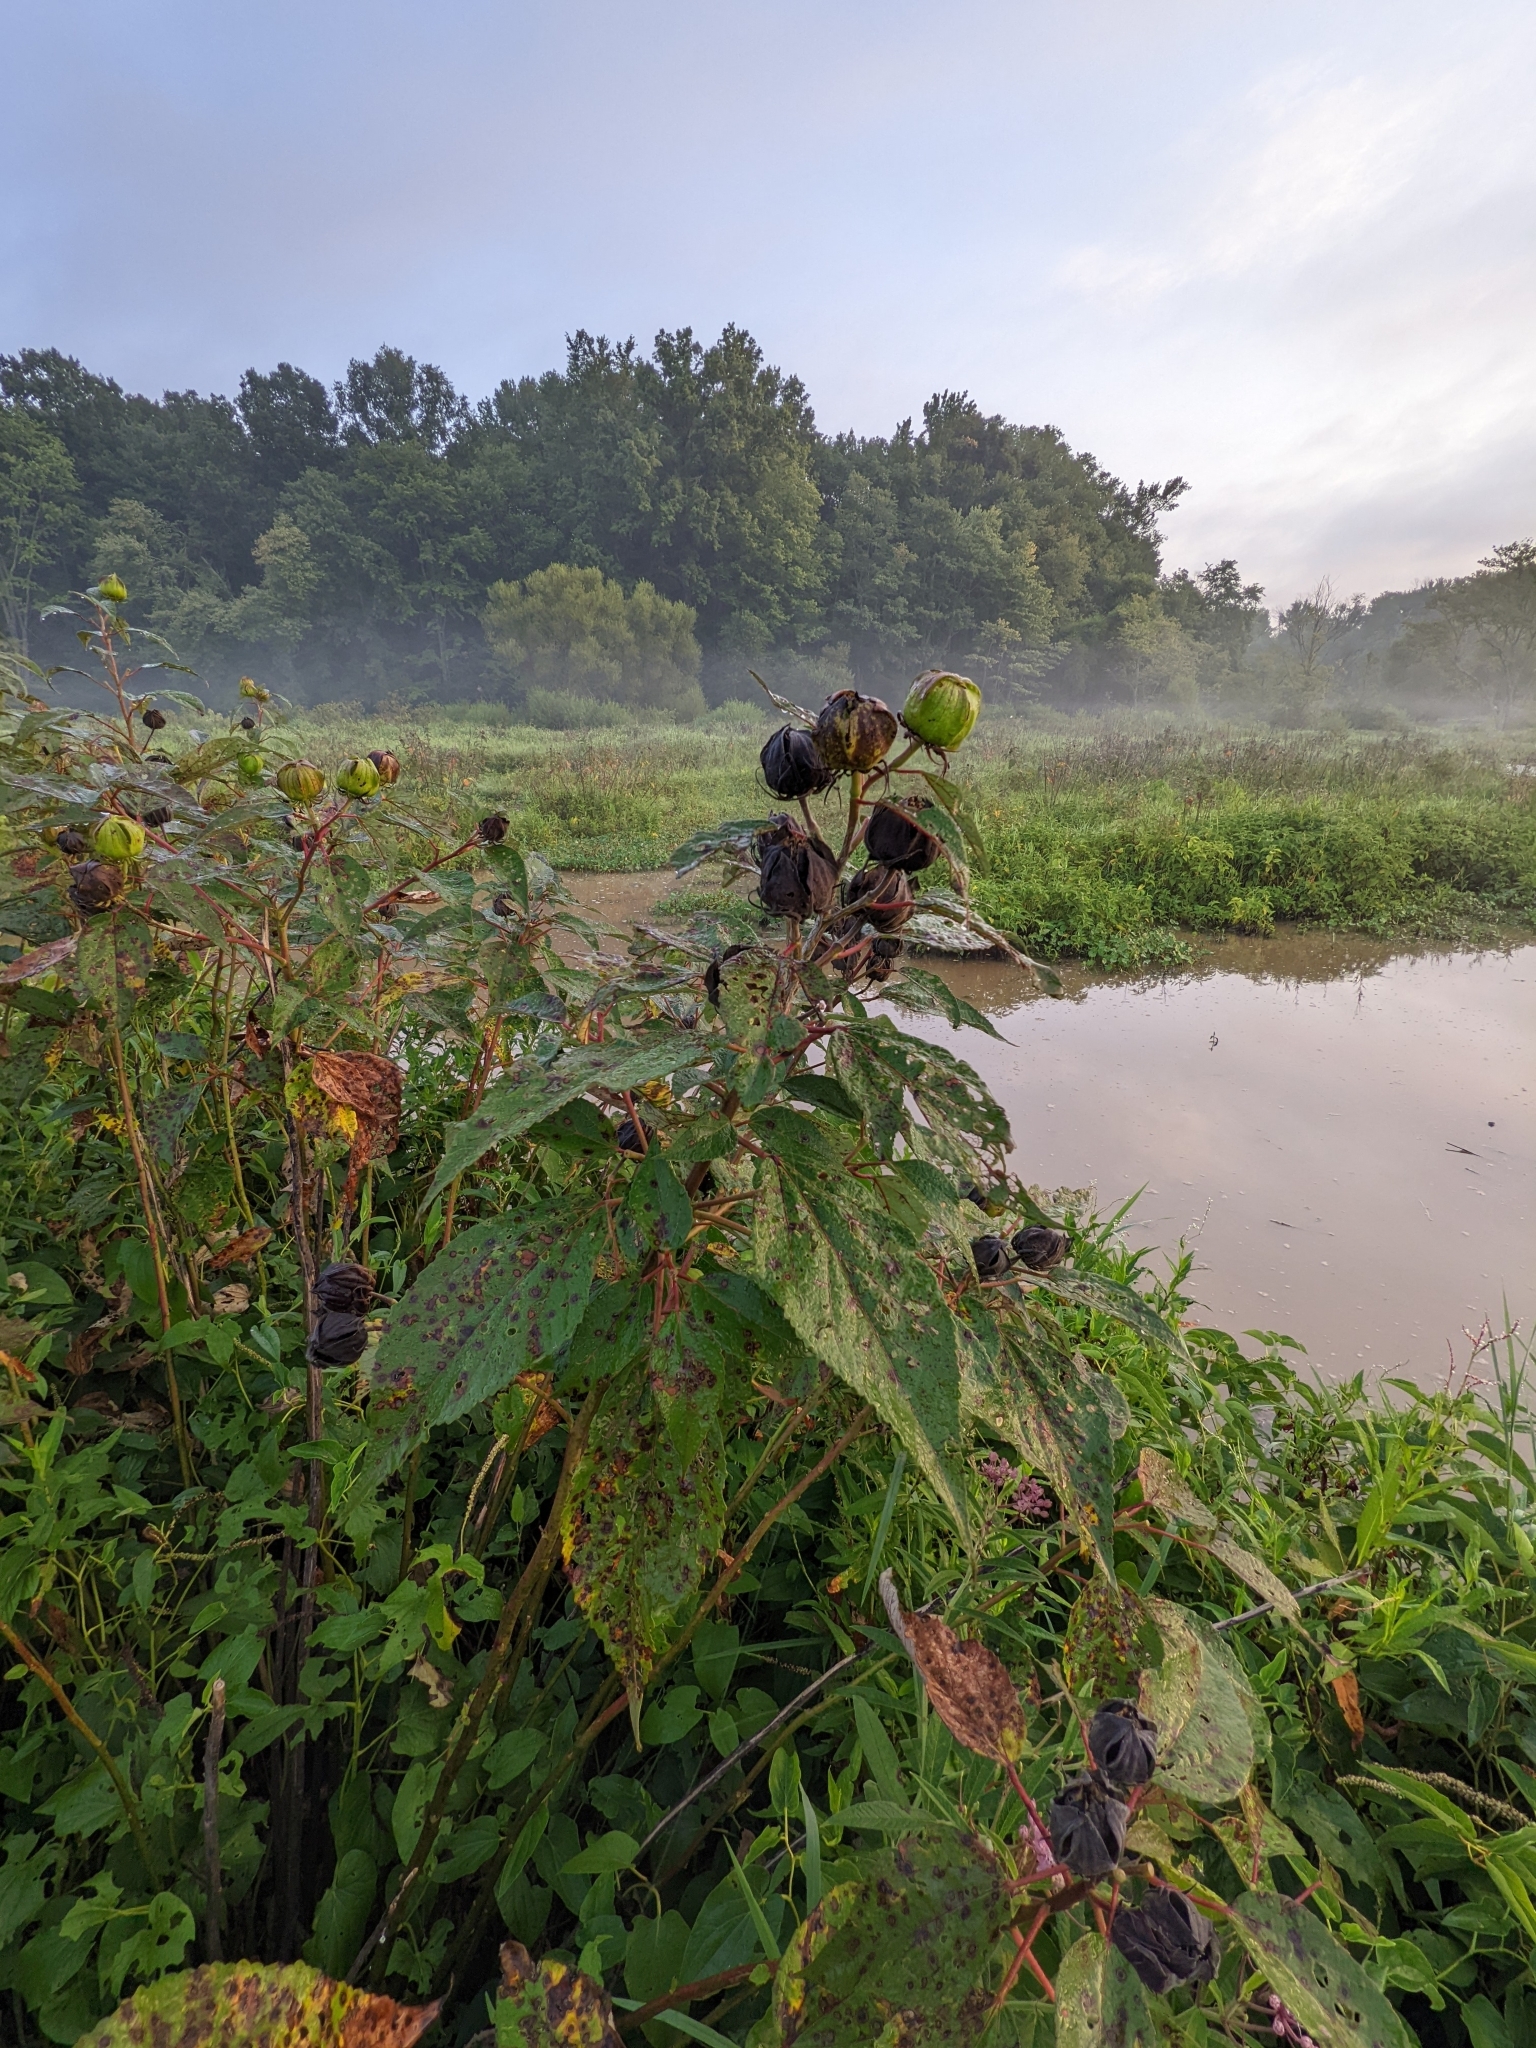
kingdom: Plantae
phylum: Tracheophyta
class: Magnoliopsida
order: Malvales
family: Malvaceae
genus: Hibiscus
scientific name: Hibiscus moscheutos
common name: Common rose-mallow
